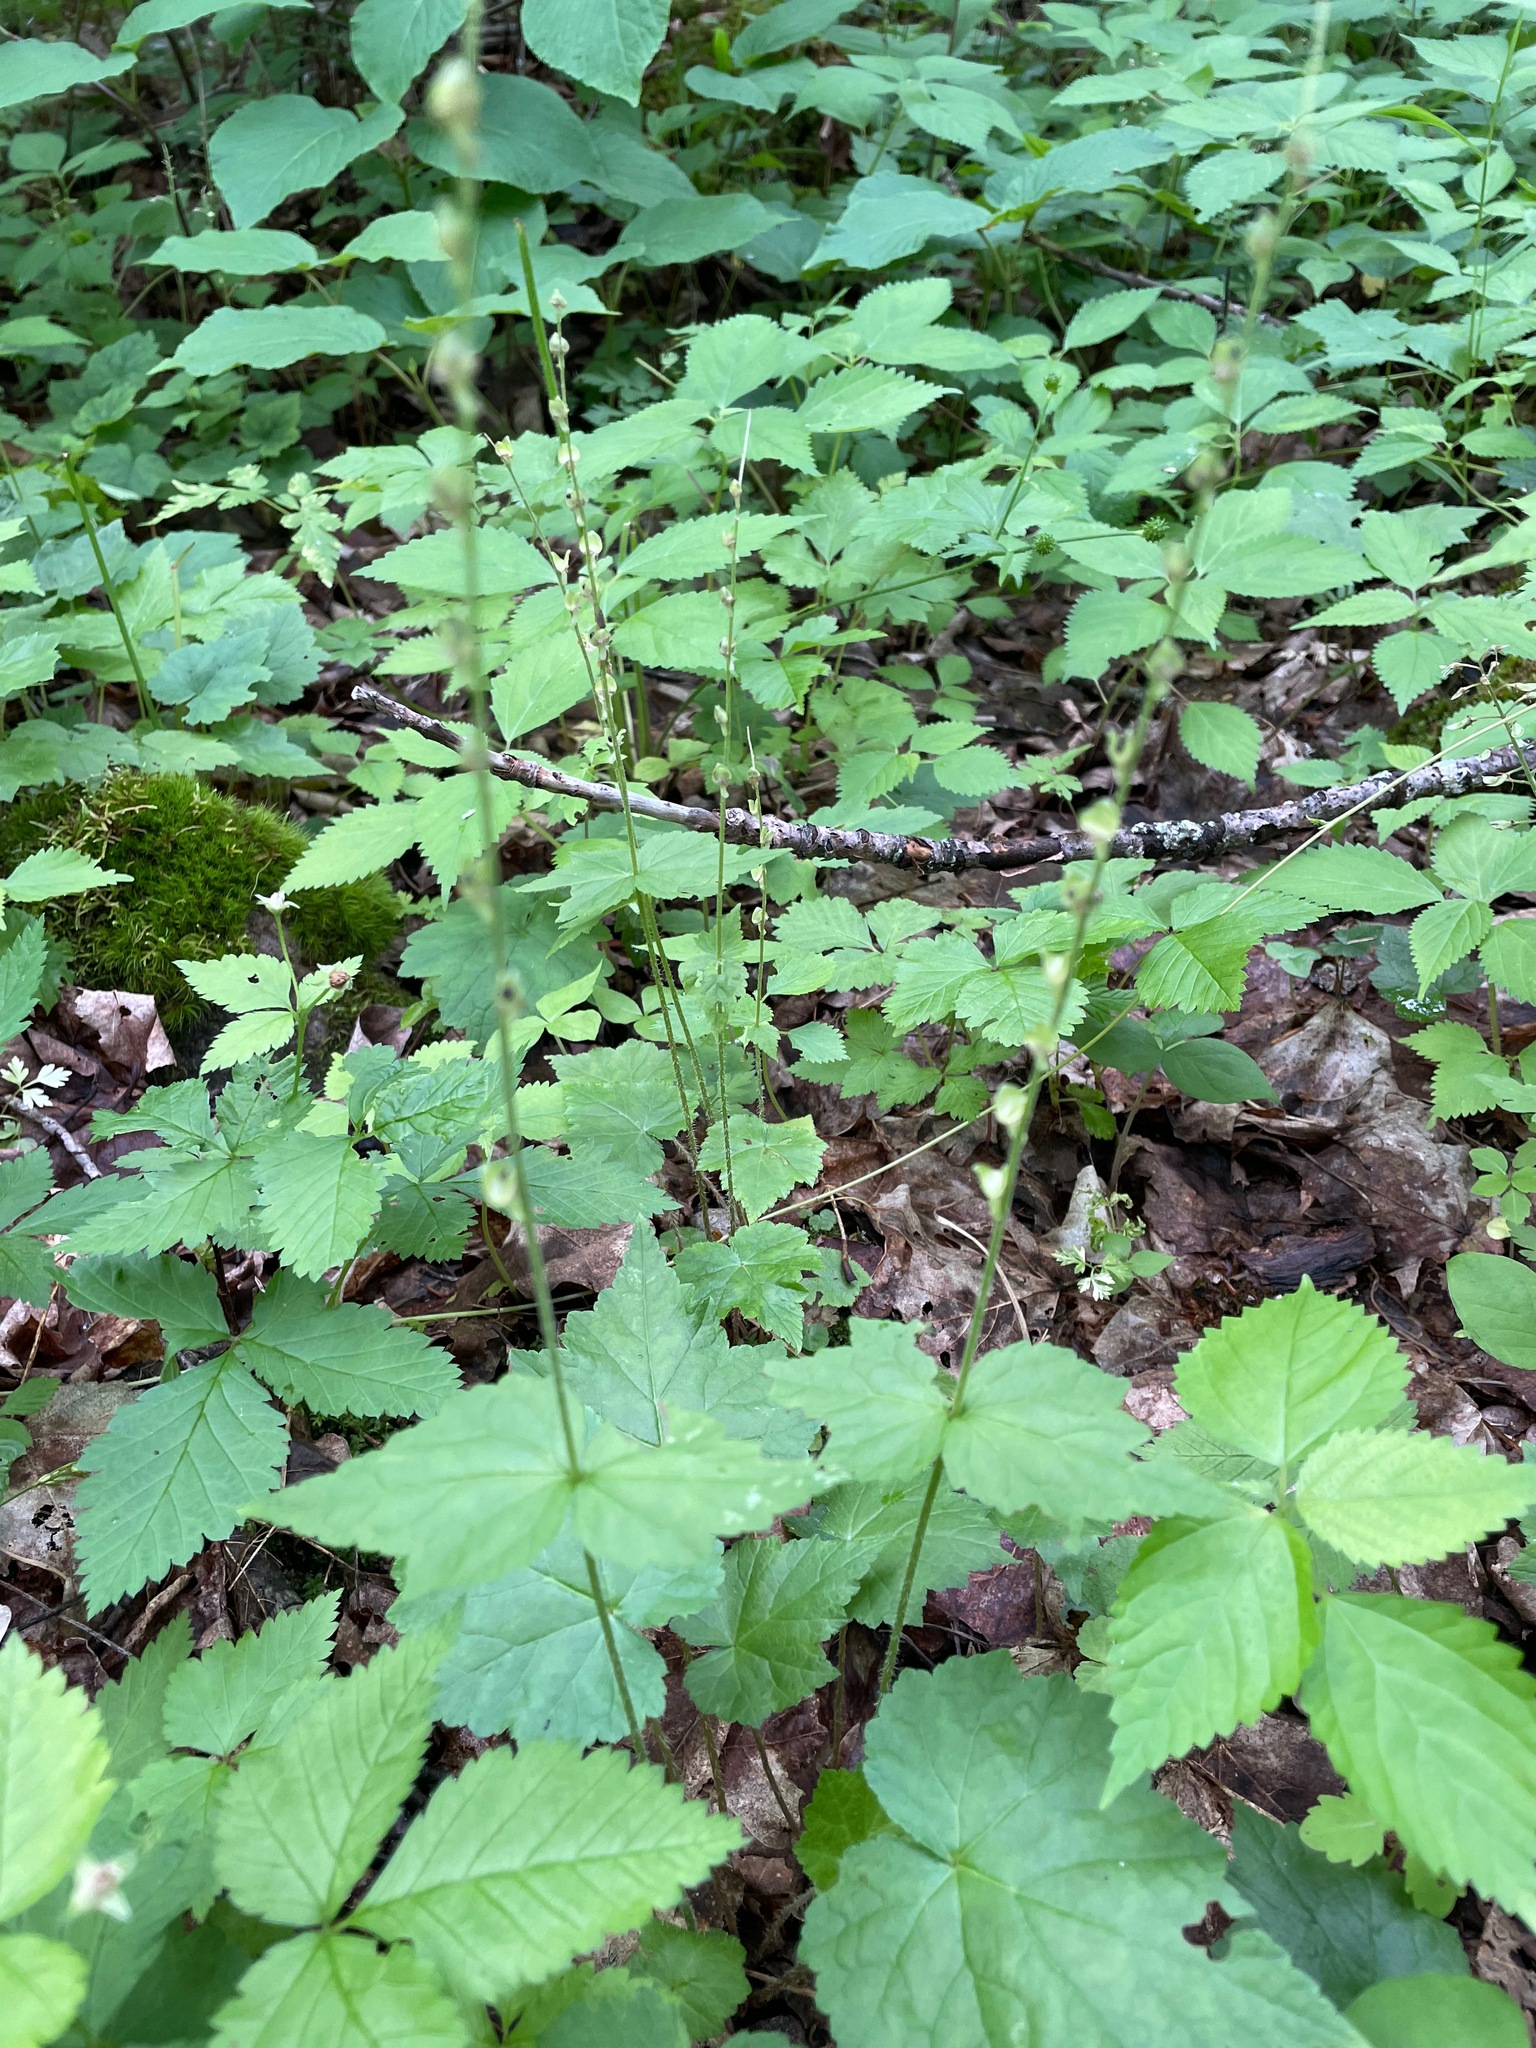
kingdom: Plantae
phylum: Tracheophyta
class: Magnoliopsida
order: Saxifragales
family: Saxifragaceae
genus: Mitella
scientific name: Mitella diphylla
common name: Coolwort
